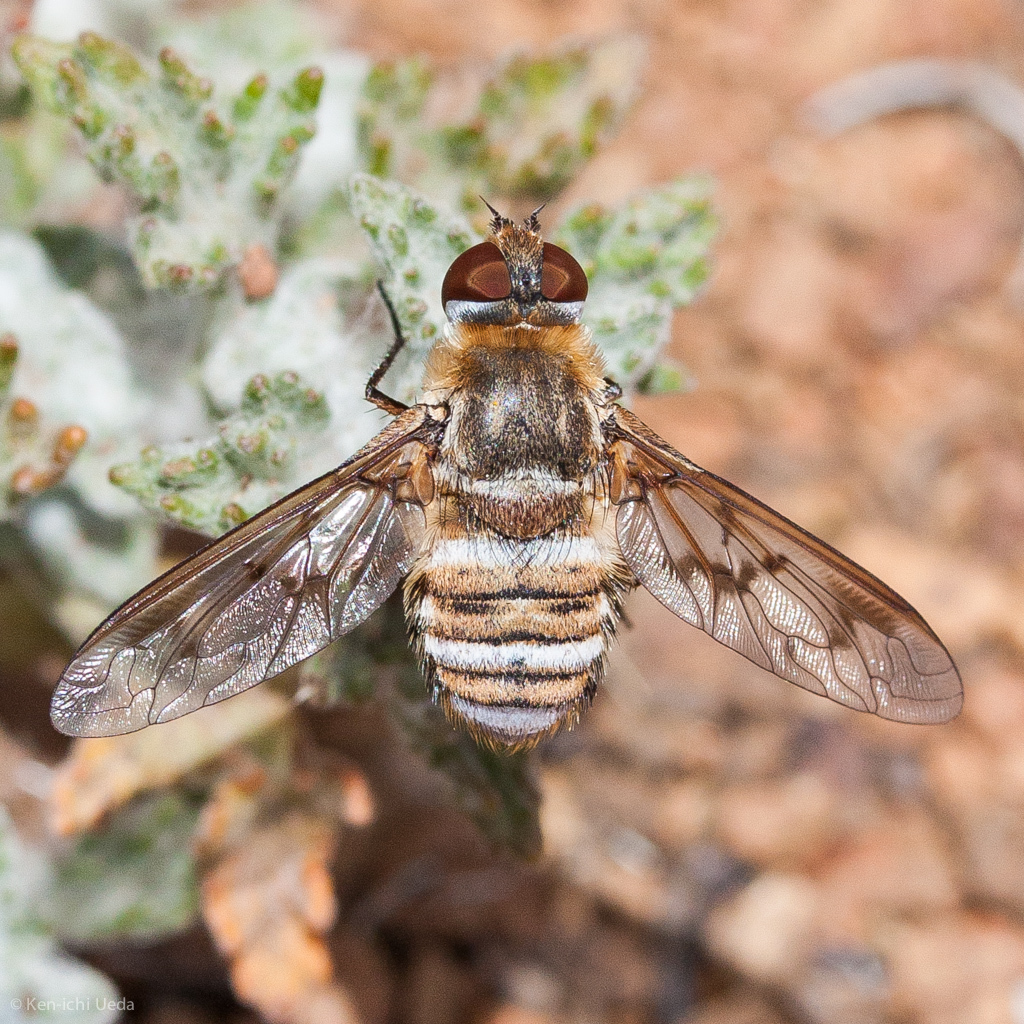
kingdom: Animalia
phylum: Arthropoda
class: Insecta
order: Diptera
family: Bombyliidae
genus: Exoprosopa
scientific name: Exoprosopa doris
